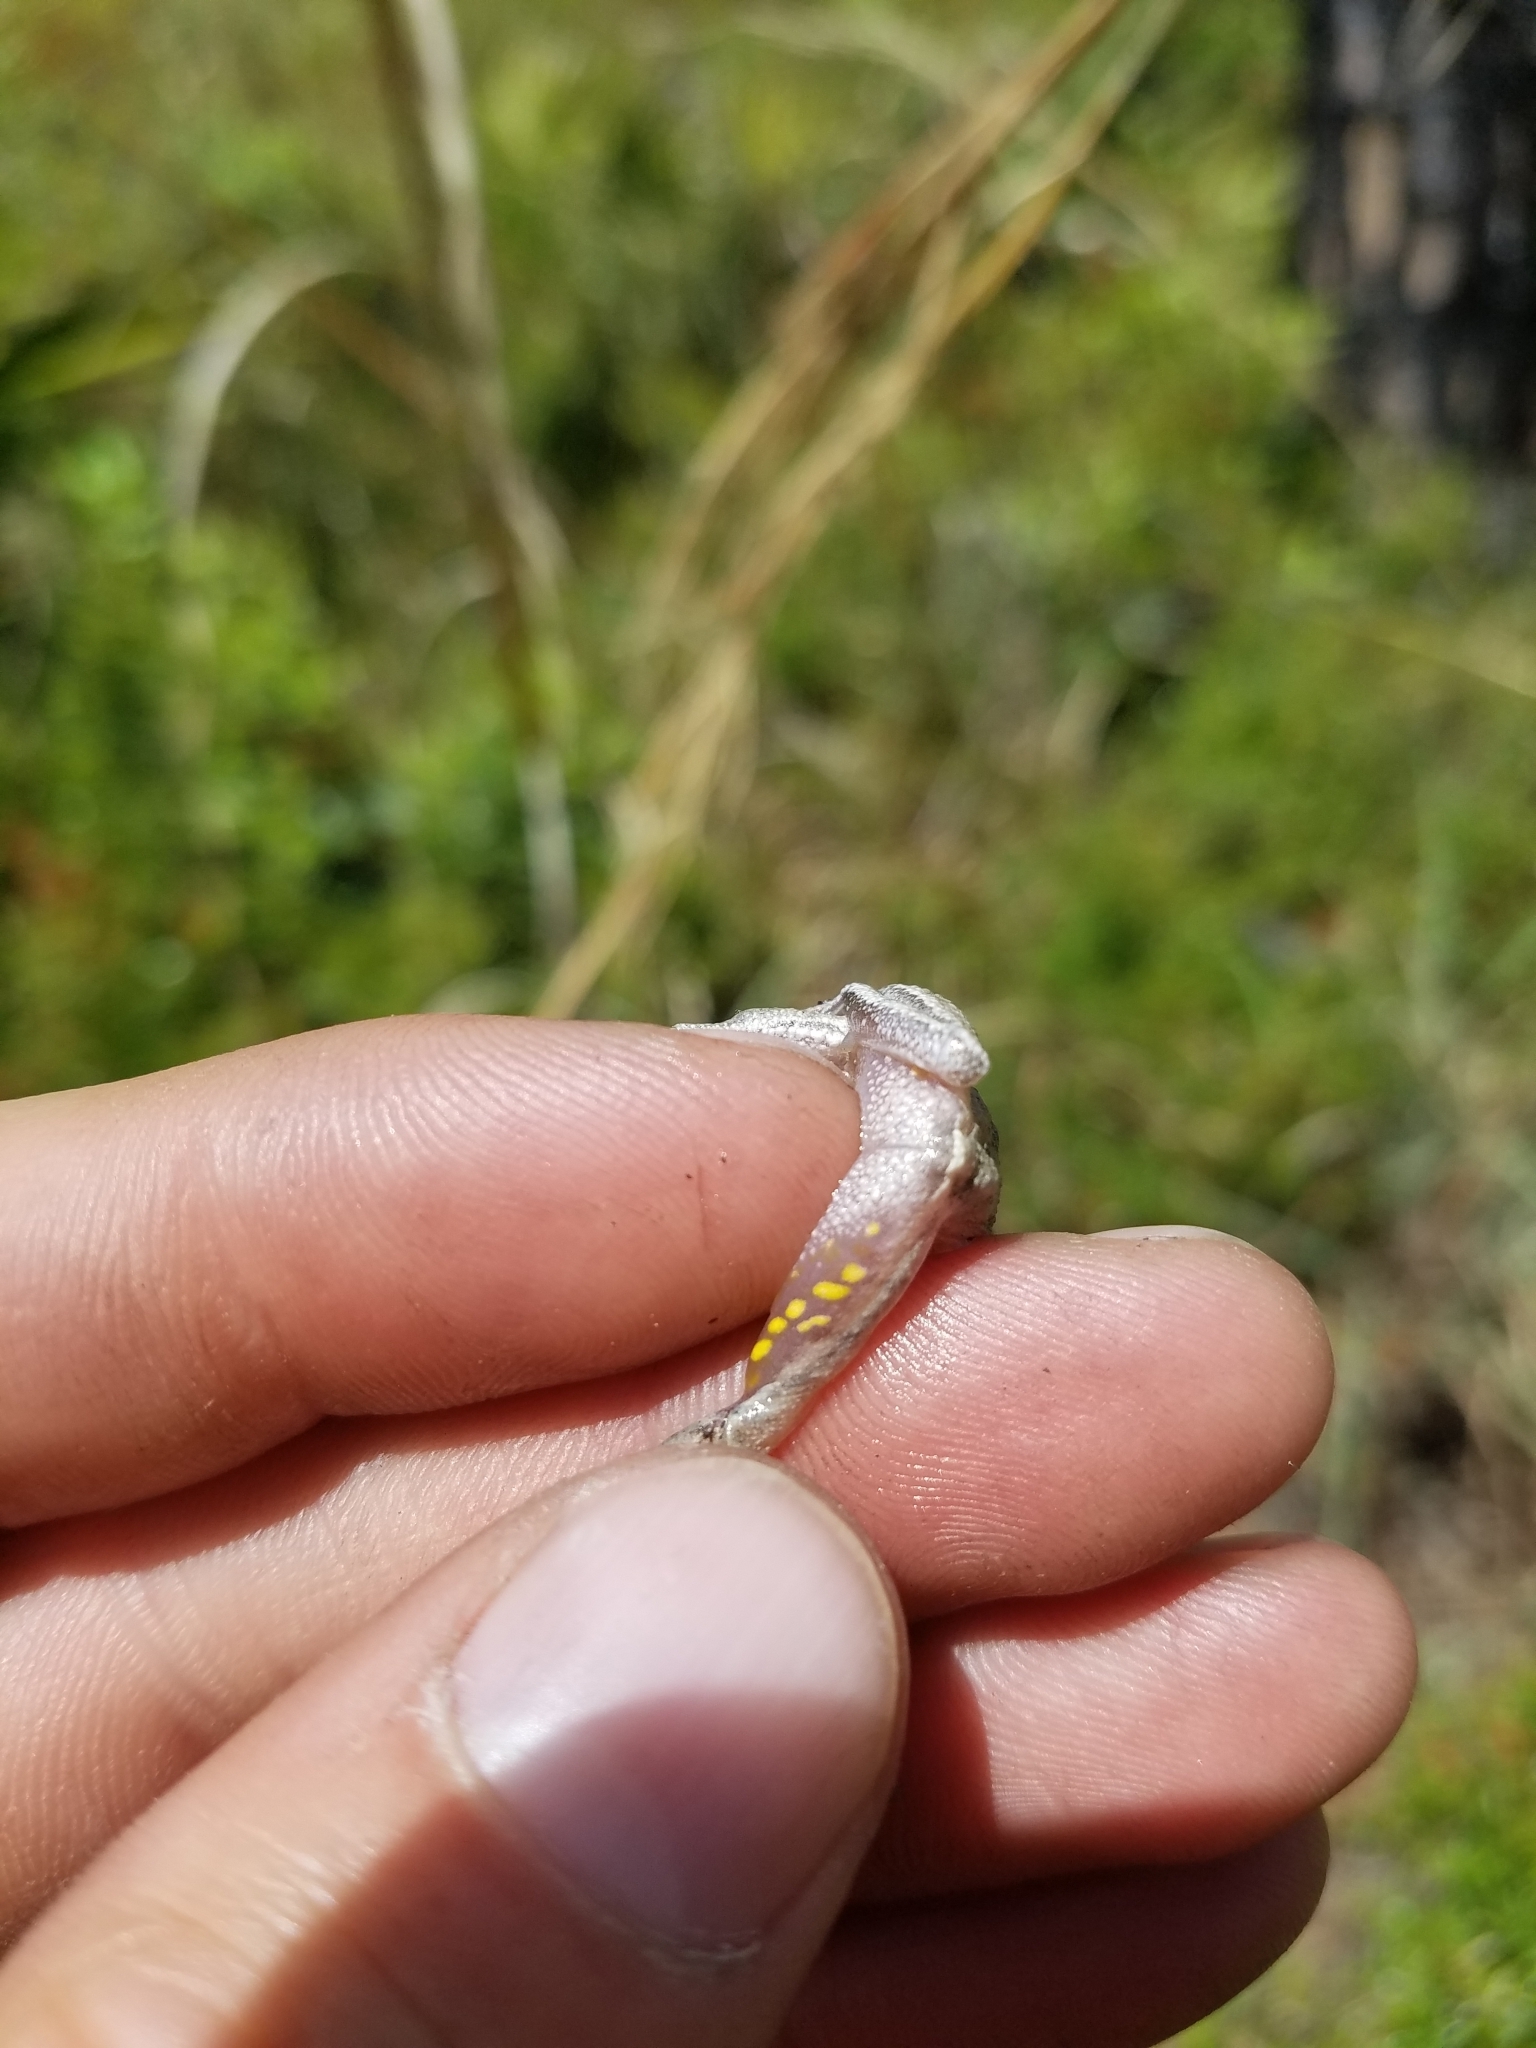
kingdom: Animalia
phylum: Chordata
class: Amphibia
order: Anura
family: Hylidae
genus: Hyla
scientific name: Hyla femoralis
